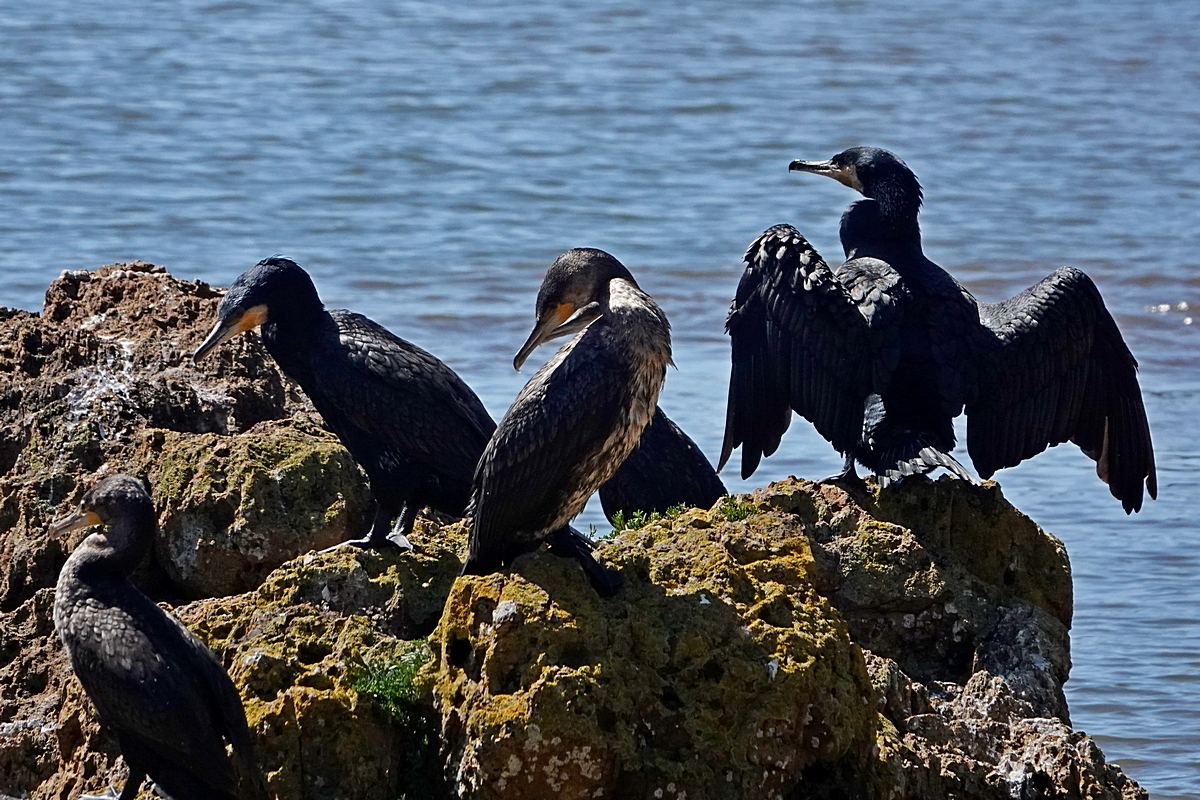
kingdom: Animalia
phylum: Chordata
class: Aves
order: Suliformes
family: Phalacrocoracidae
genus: Phalacrocorax
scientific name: Phalacrocorax carbo
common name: Great cormorant
